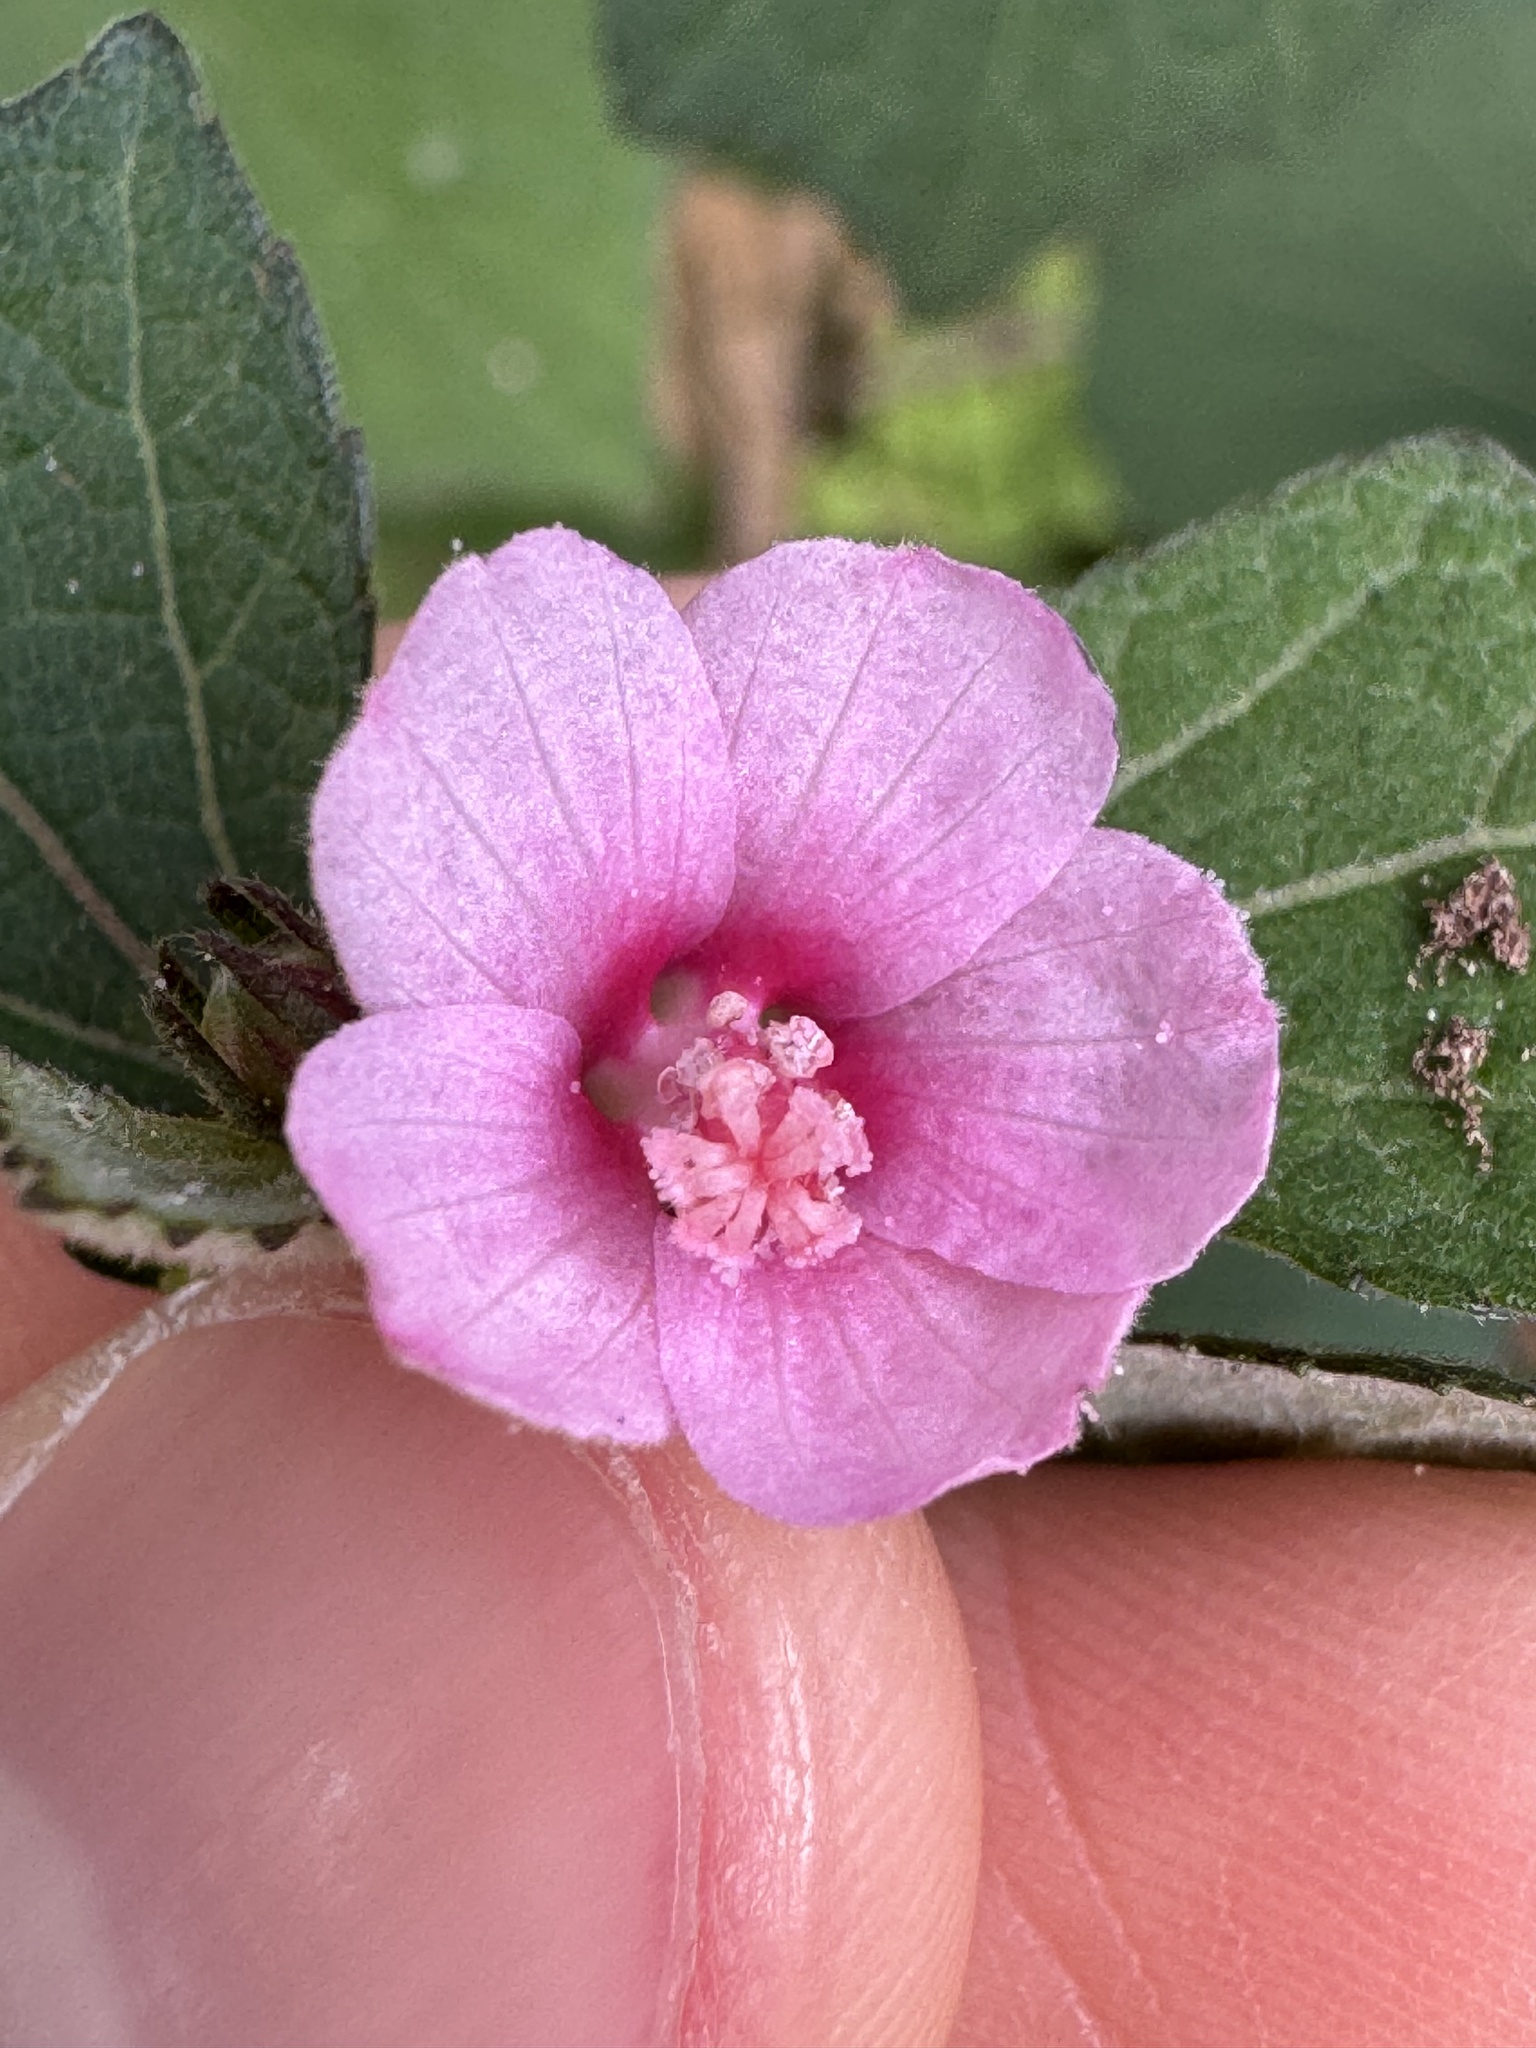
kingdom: Plantae
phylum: Tracheophyta
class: Magnoliopsida
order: Malvales
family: Malvaceae
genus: Urena
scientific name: Urena lobata
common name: Caesarweed
